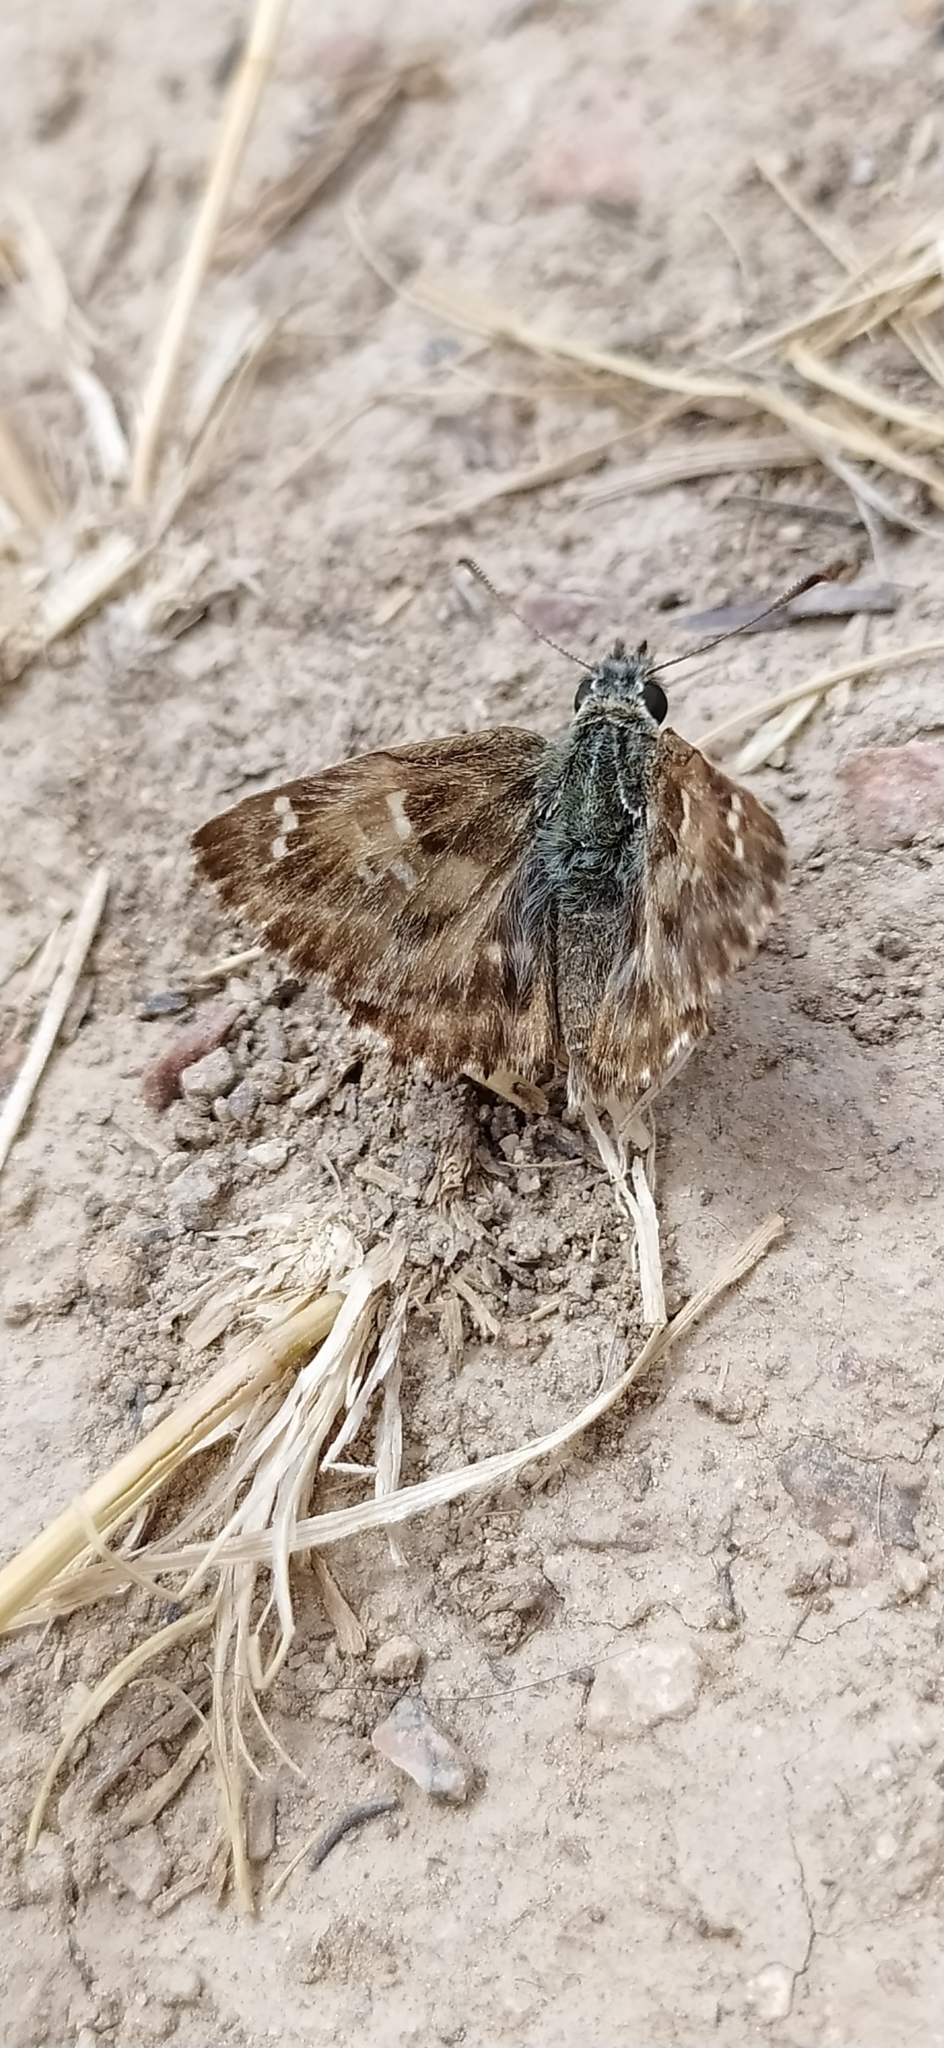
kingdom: Animalia
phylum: Arthropoda
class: Insecta
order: Lepidoptera
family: Hesperiidae
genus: Carcharodus
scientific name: Carcharodus alceae
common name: Mallow skipper
